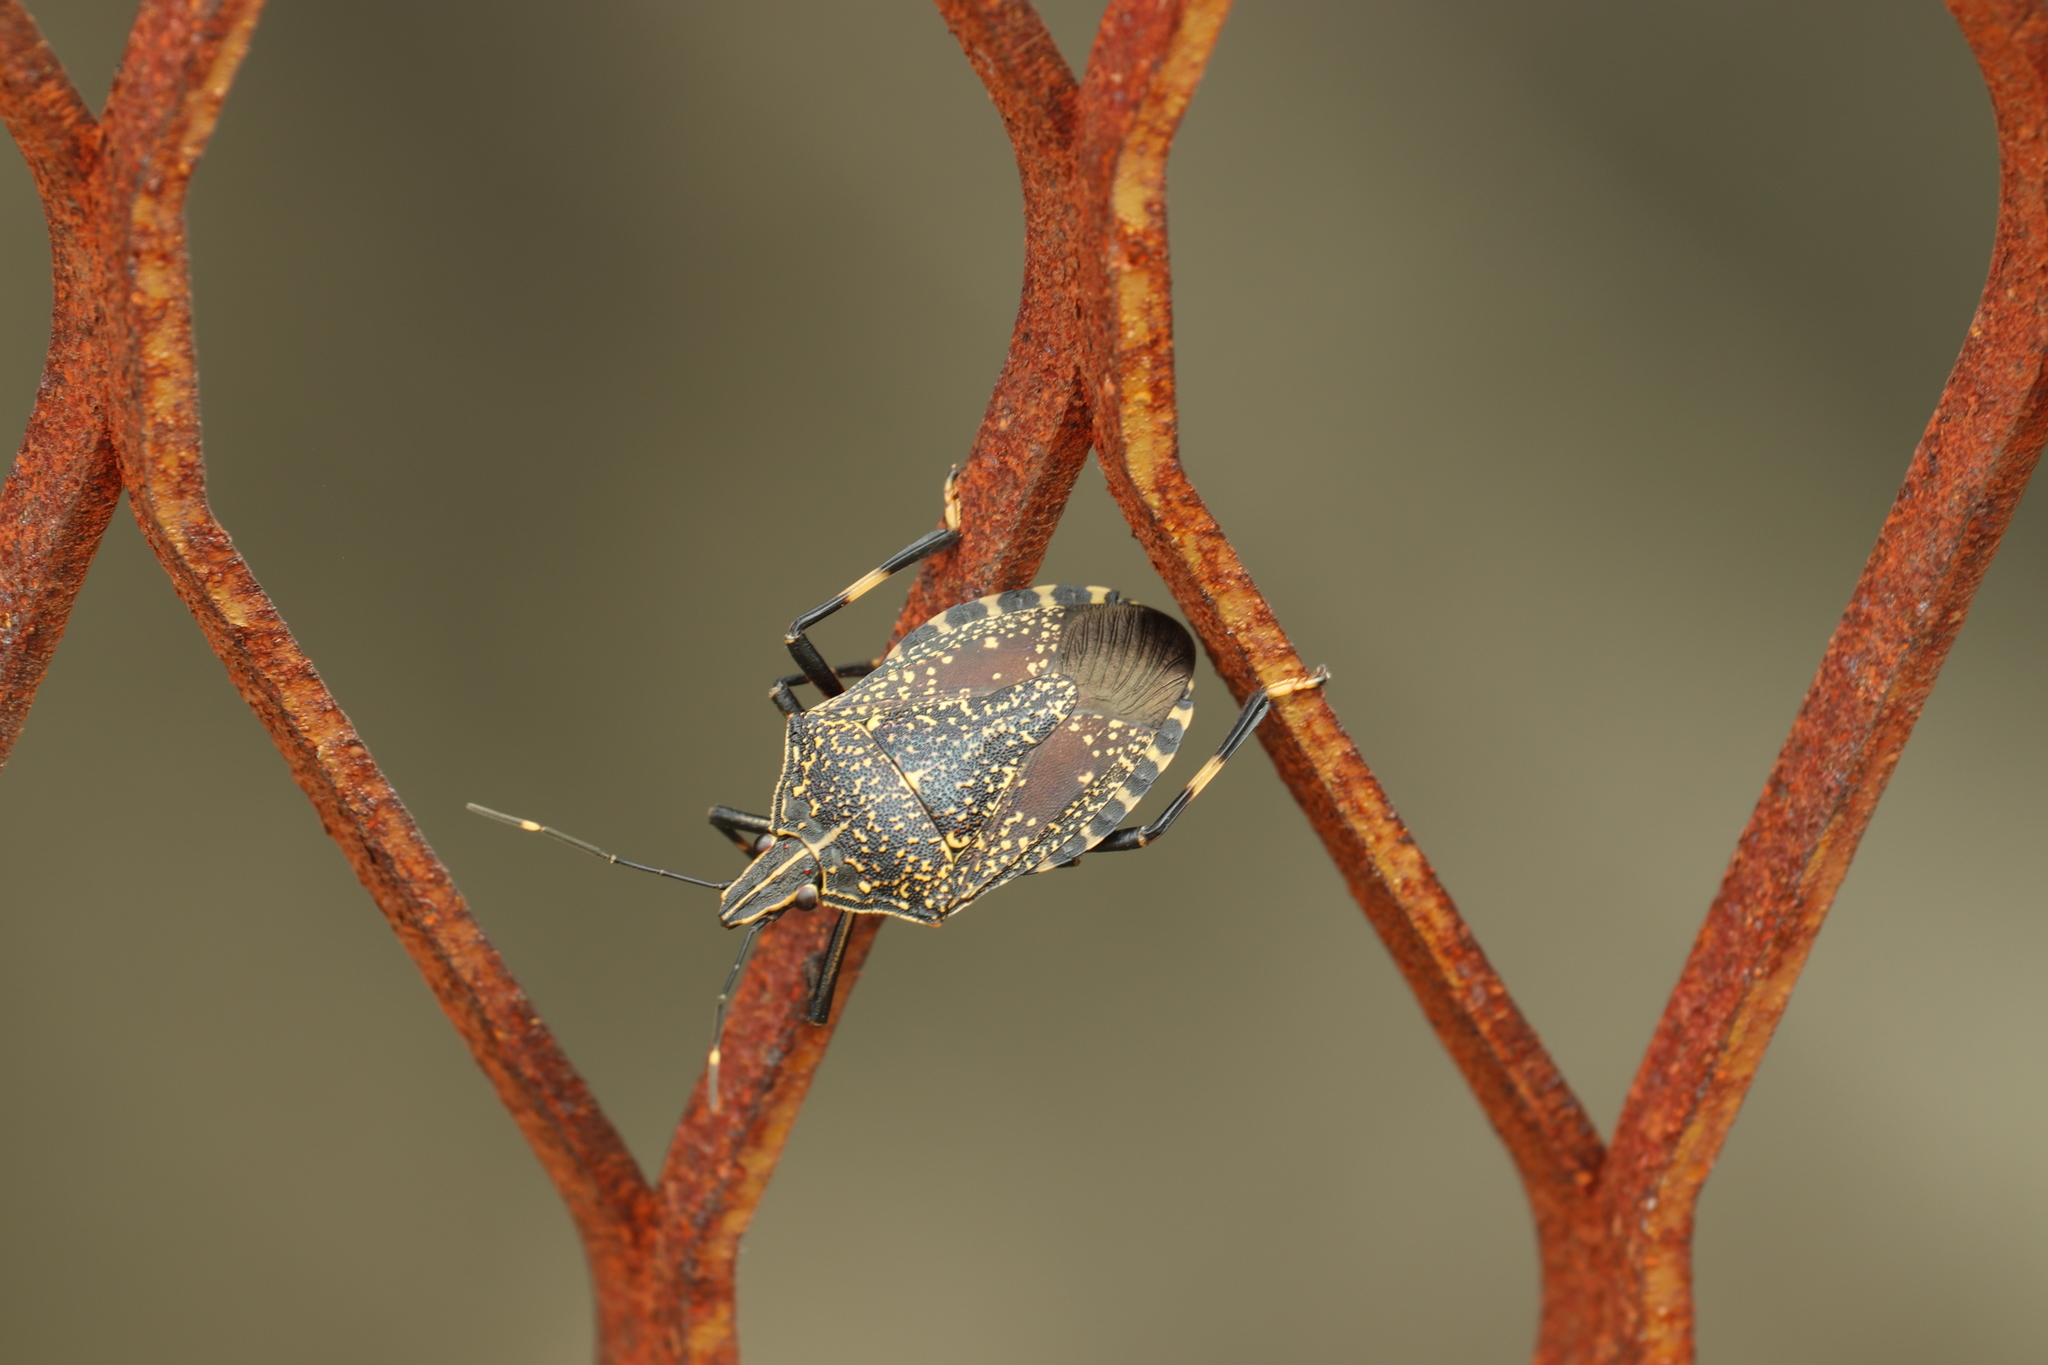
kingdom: Animalia
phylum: Arthropoda
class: Insecta
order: Hemiptera
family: Pentatomidae
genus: Erthesina
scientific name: Erthesina fullo
